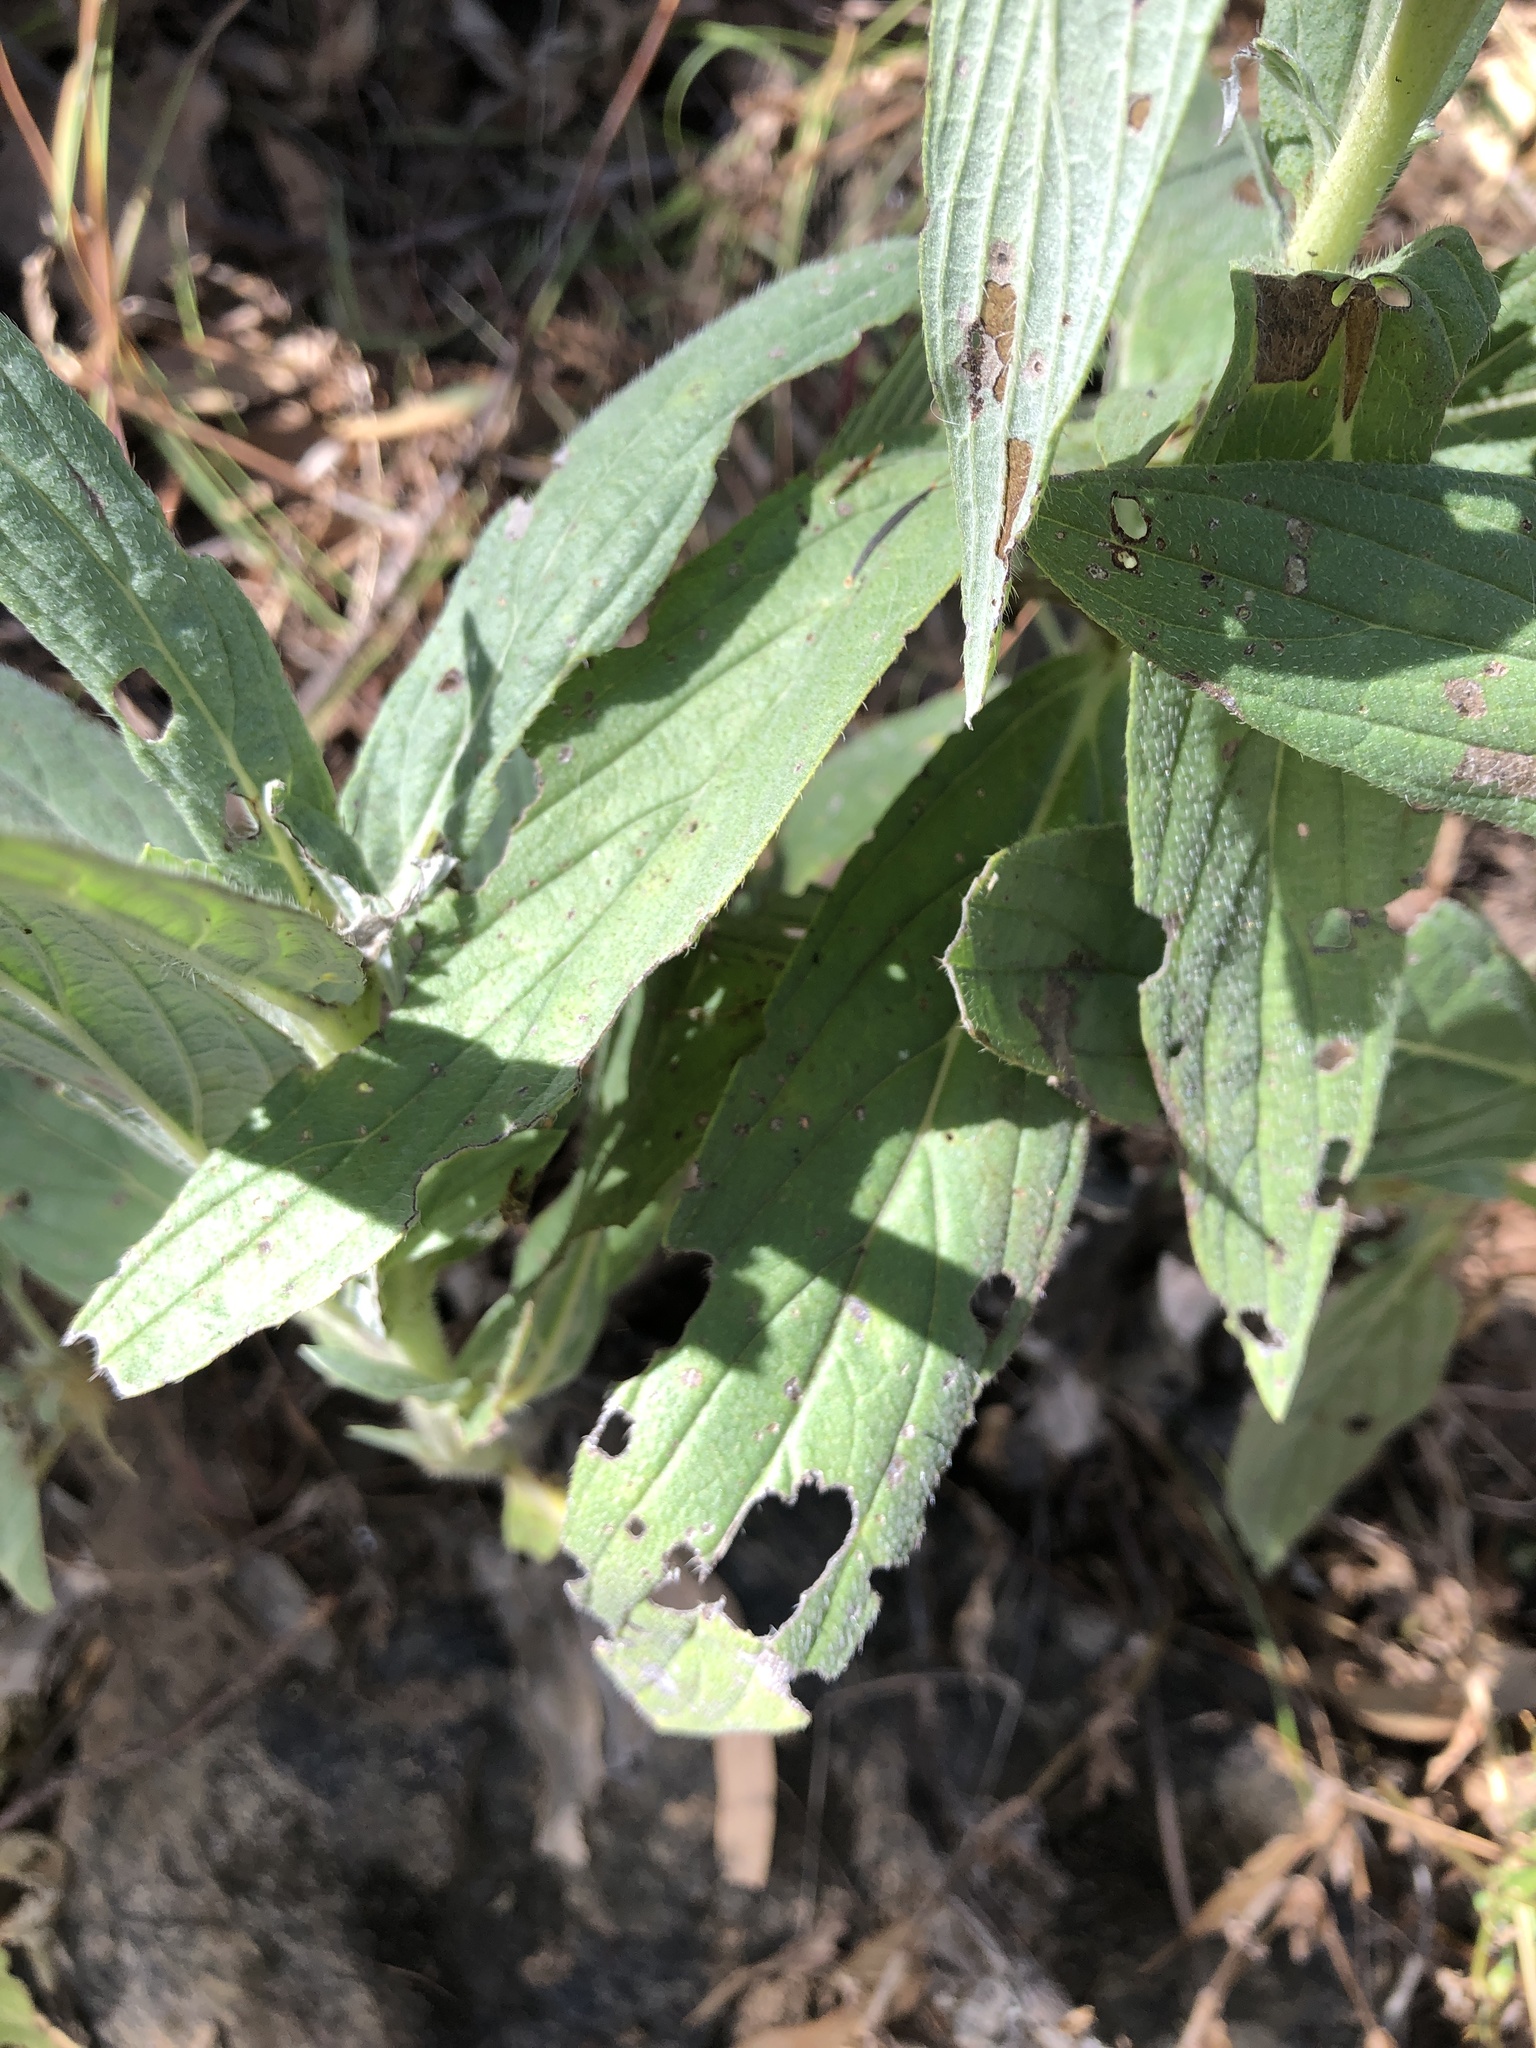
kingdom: Plantae
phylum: Tracheophyta
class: Magnoliopsida
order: Boraginales
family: Boraginaceae
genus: Trichodesma
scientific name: Trichodesma zeylanicum
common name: Camelbush
